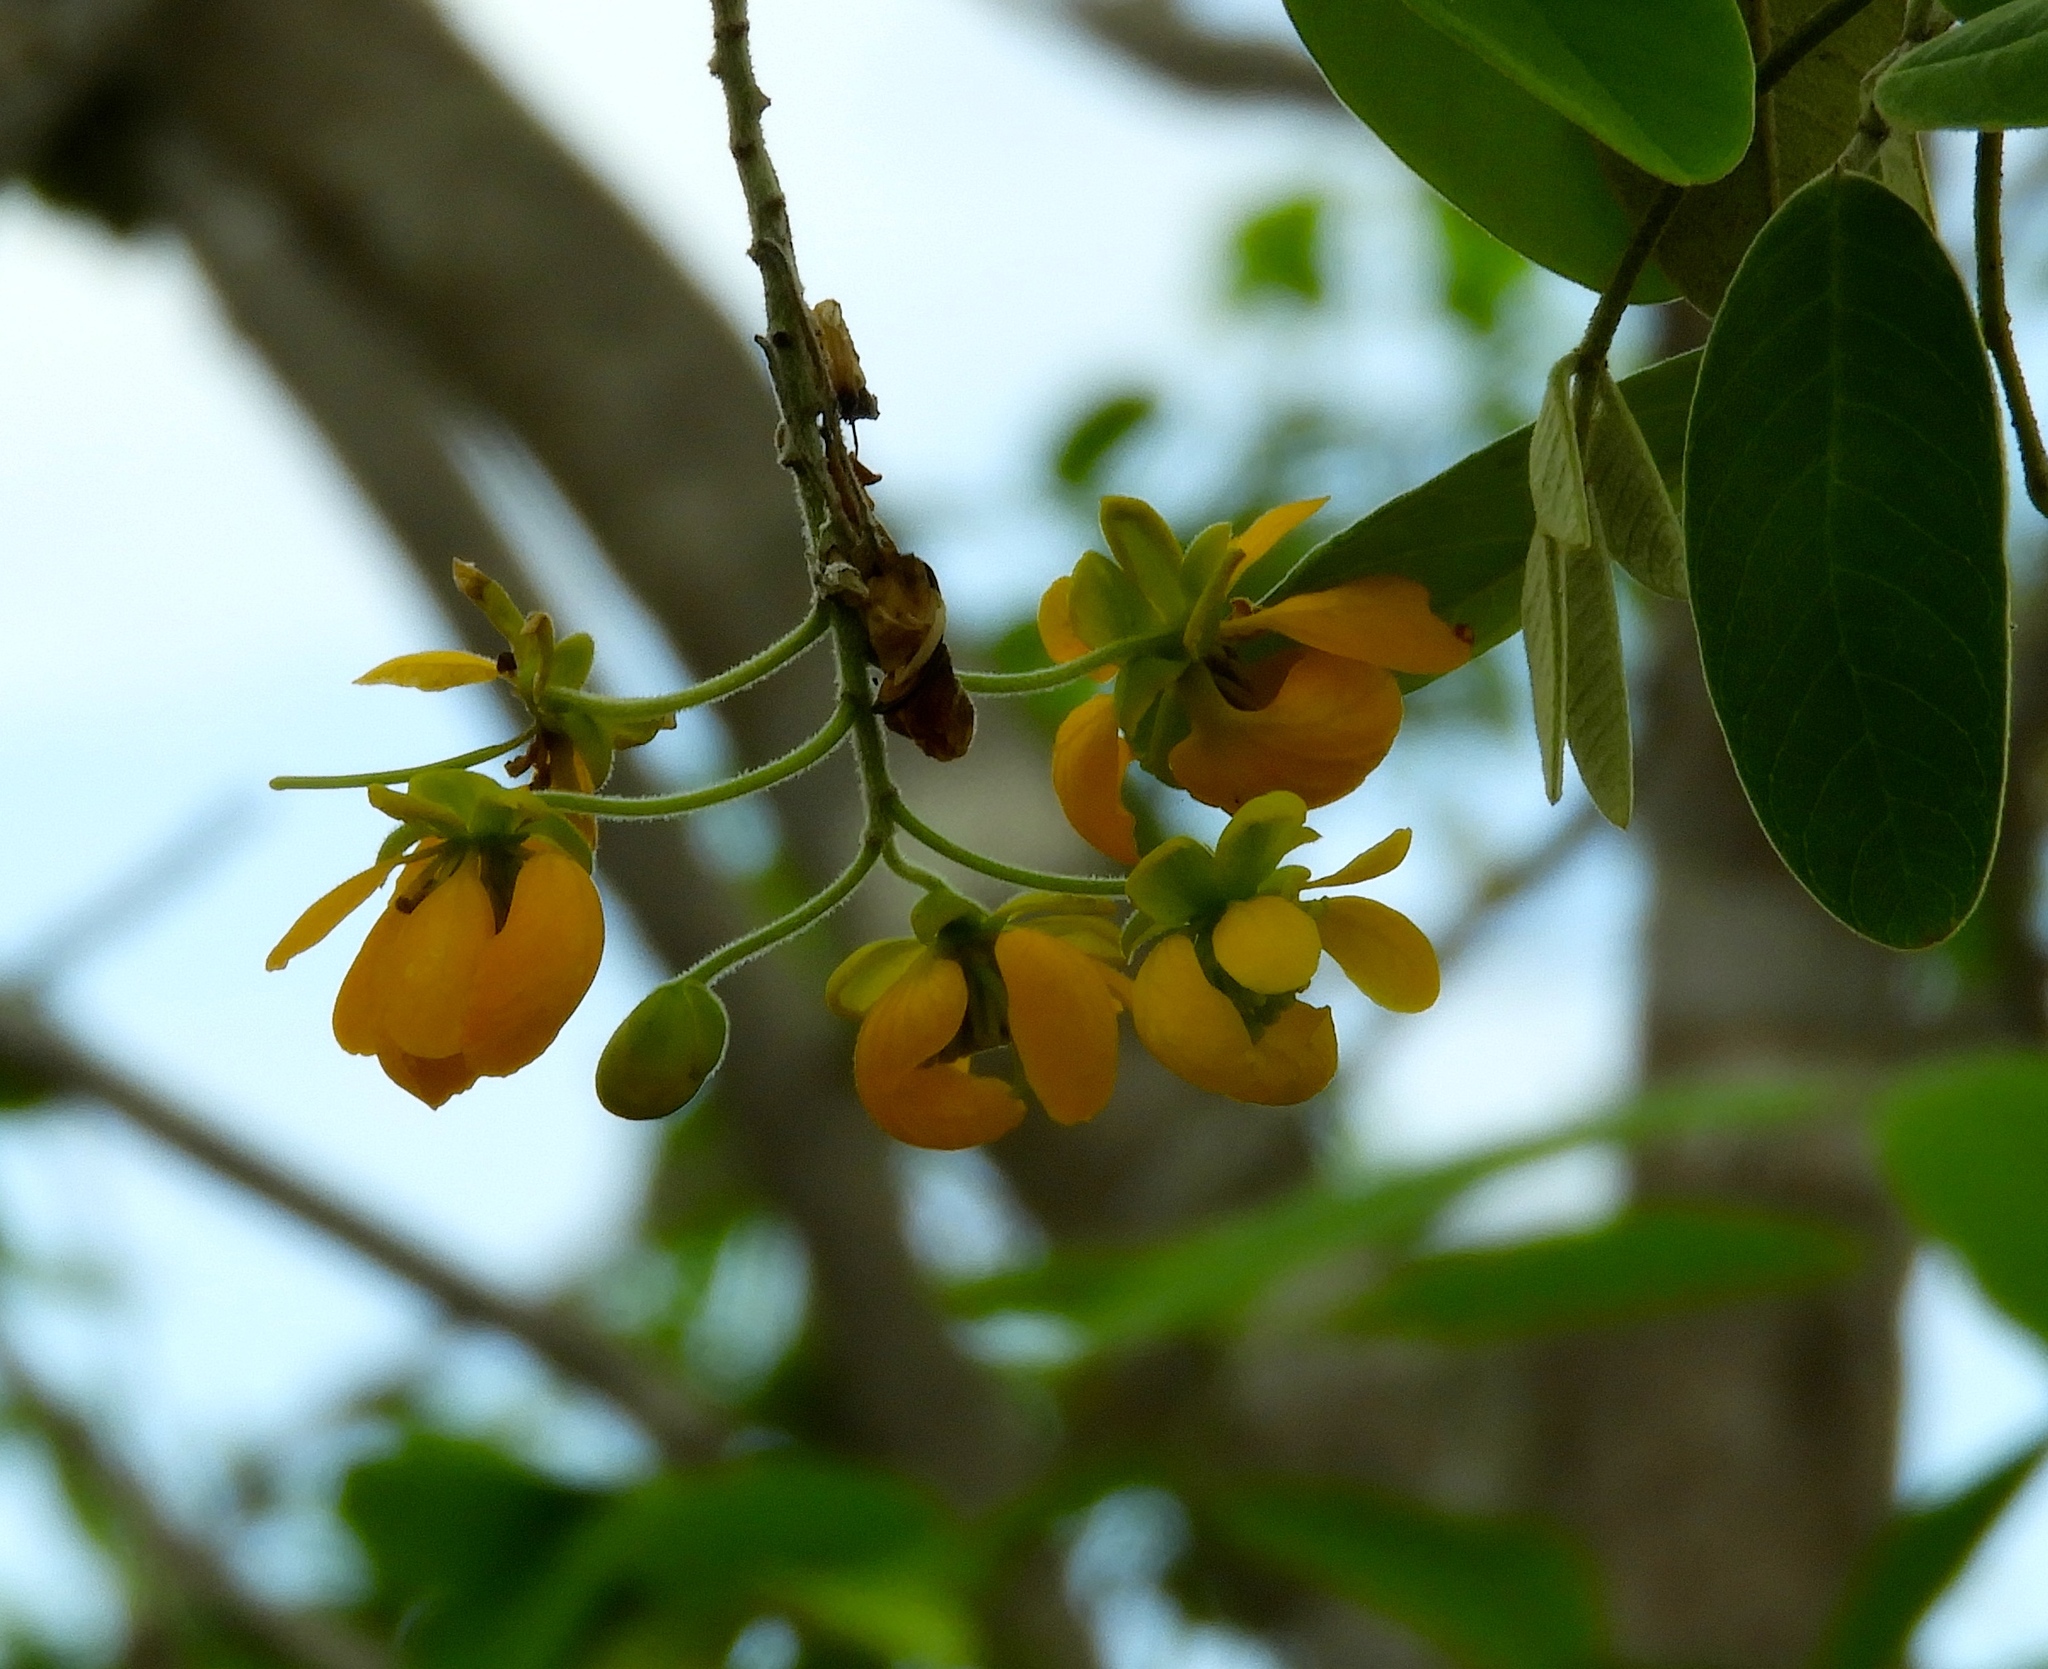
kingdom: Plantae
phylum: Tracheophyta
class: Magnoliopsida
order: Fabales
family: Fabaceae
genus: Senna
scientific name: Senna atomaria
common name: Flor de san jose
